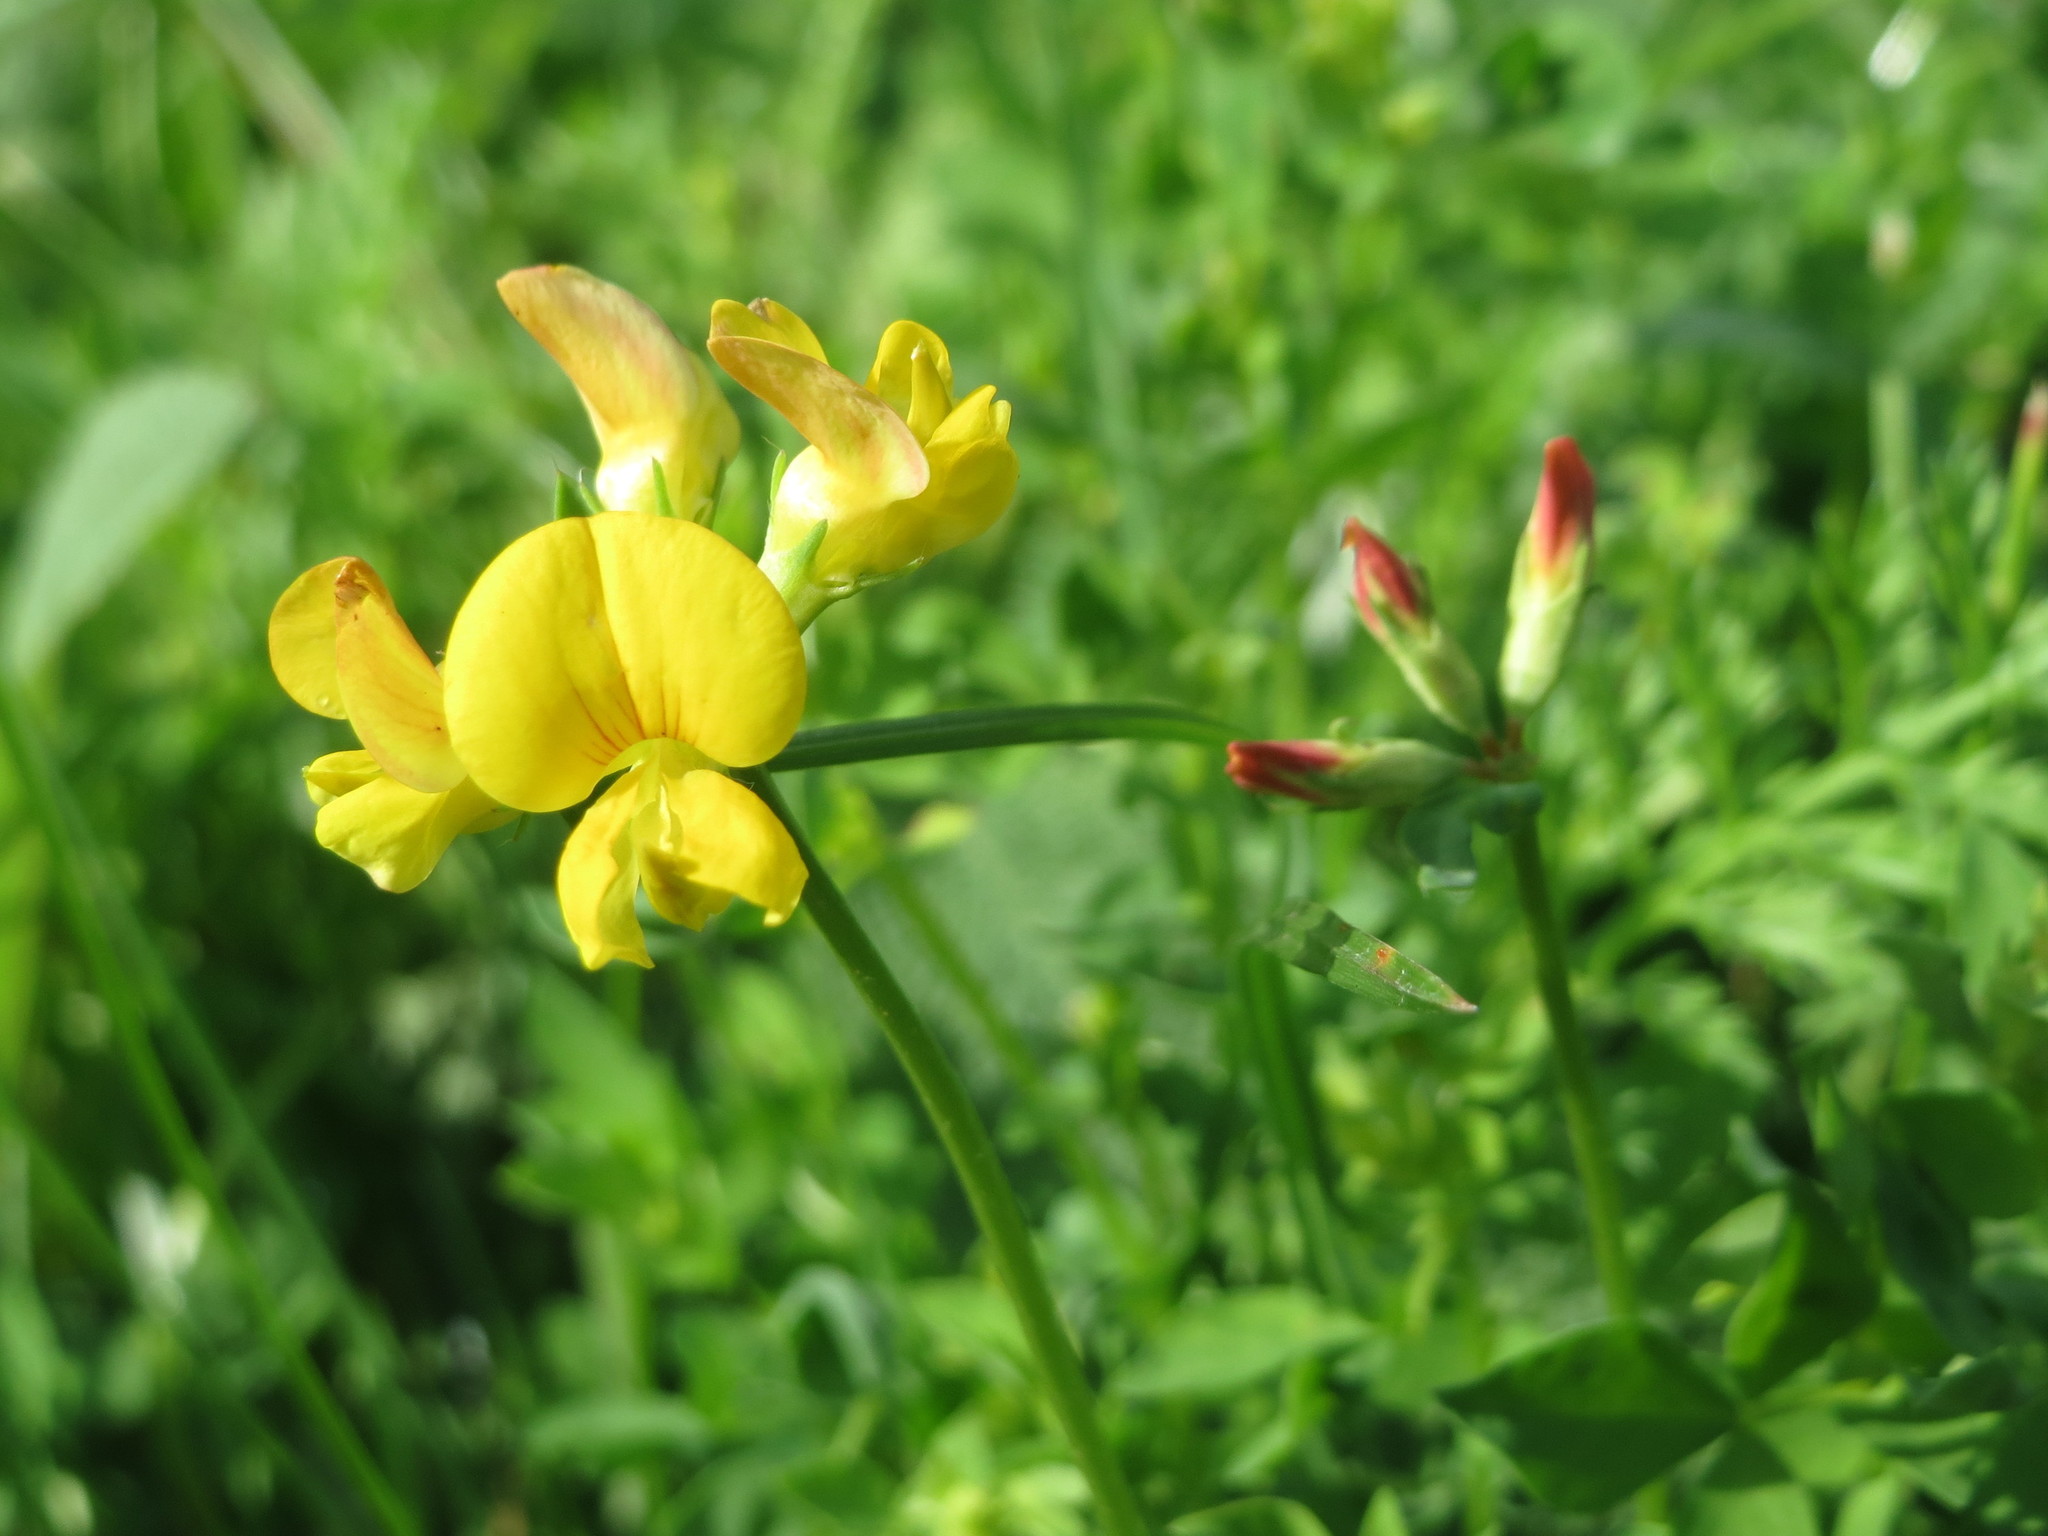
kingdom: Plantae
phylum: Tracheophyta
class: Magnoliopsida
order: Fabales
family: Fabaceae
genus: Lotus
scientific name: Lotus corniculatus
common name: Common bird's-foot-trefoil
